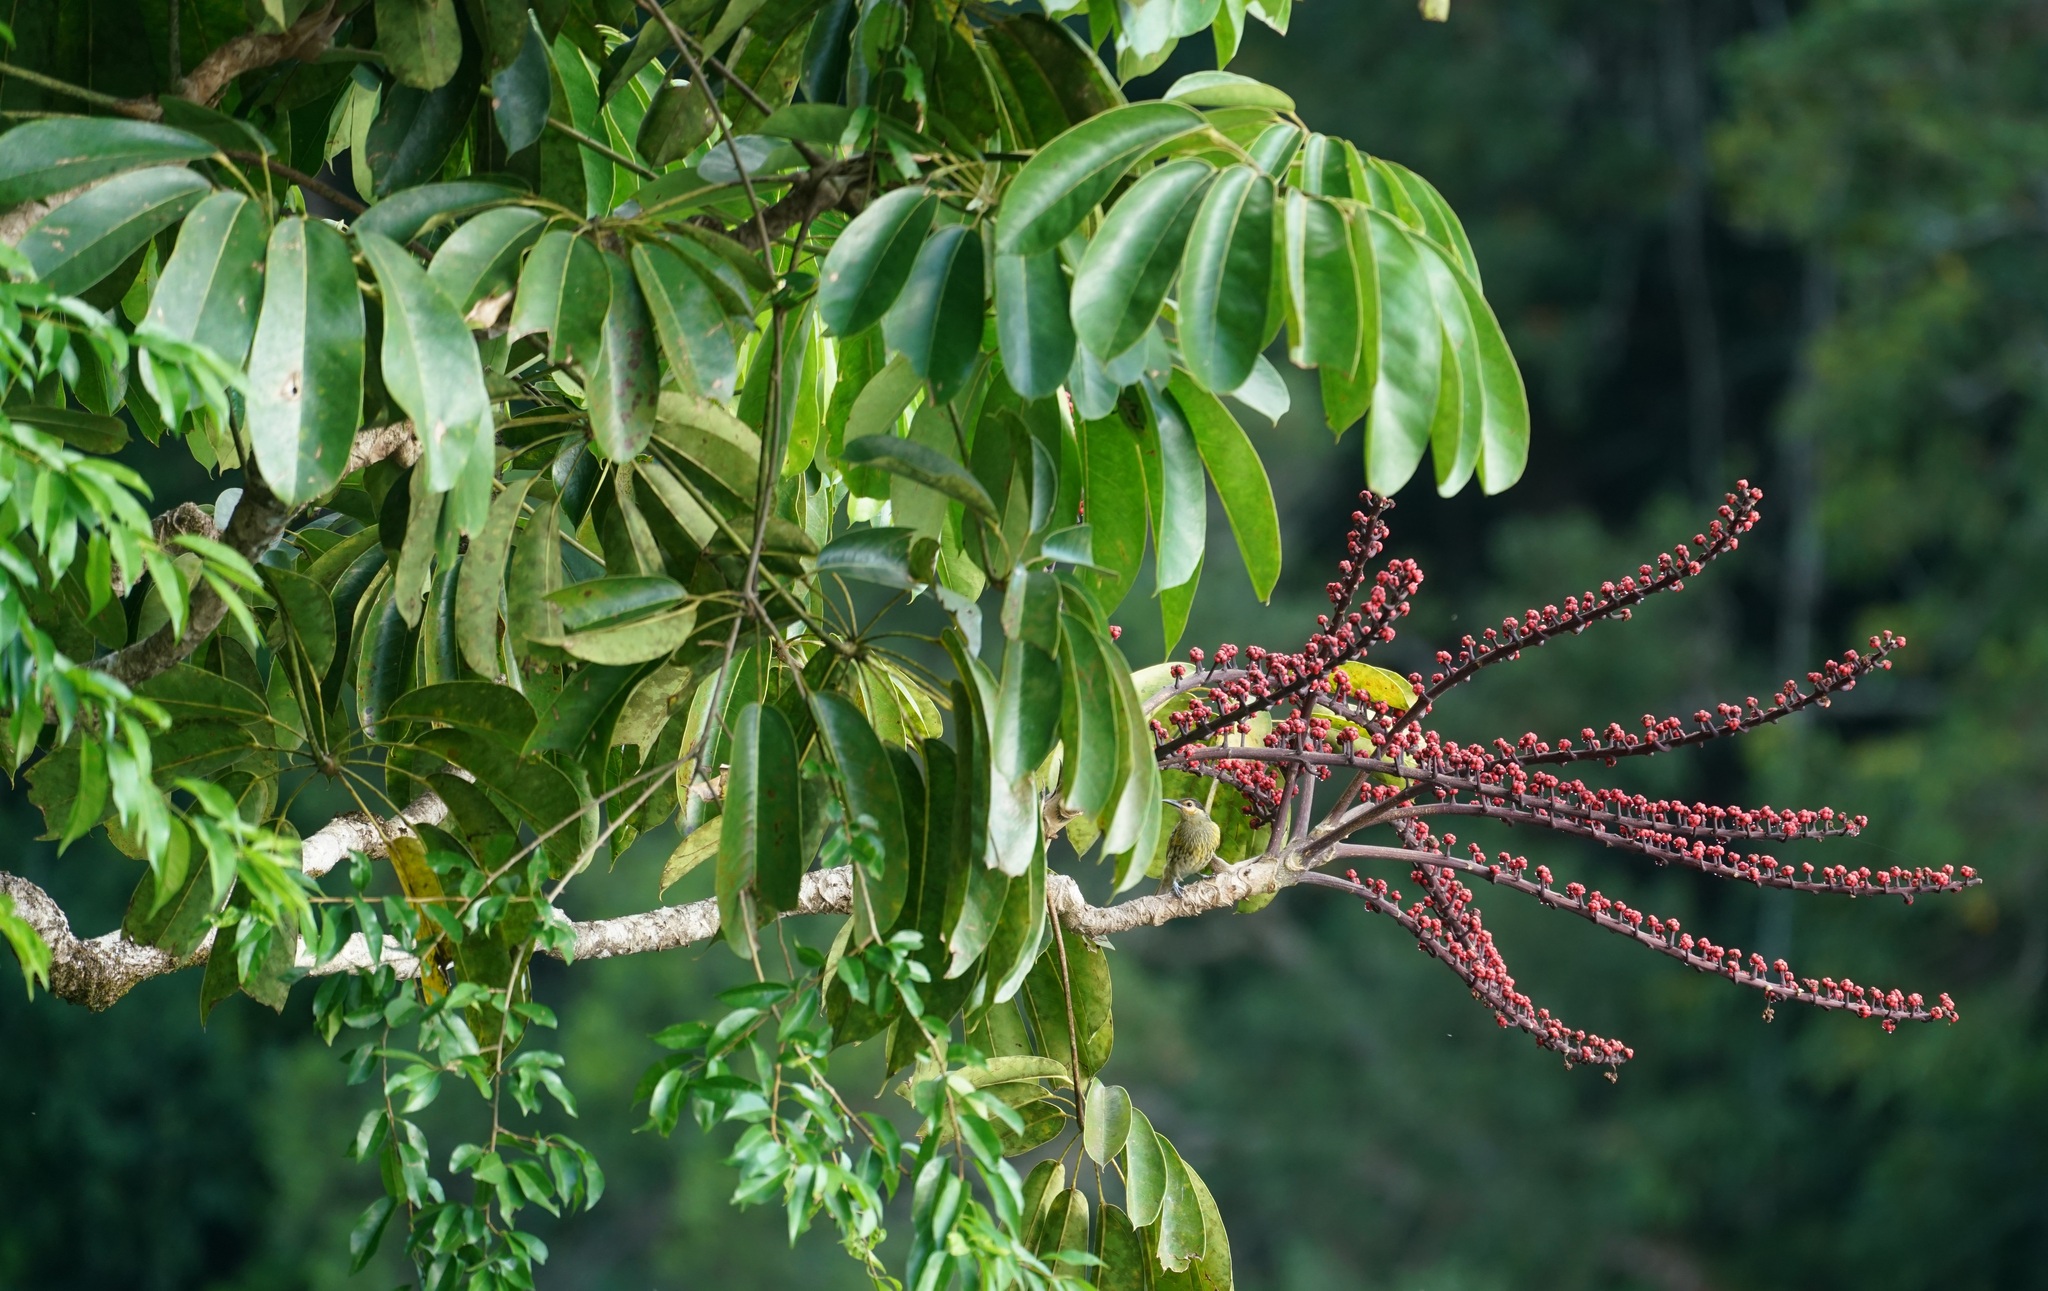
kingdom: Plantae
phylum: Tracheophyta
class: Magnoliopsida
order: Apiales
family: Araliaceae
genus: Heptapleurum
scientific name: Heptapleurum actinophyllum
